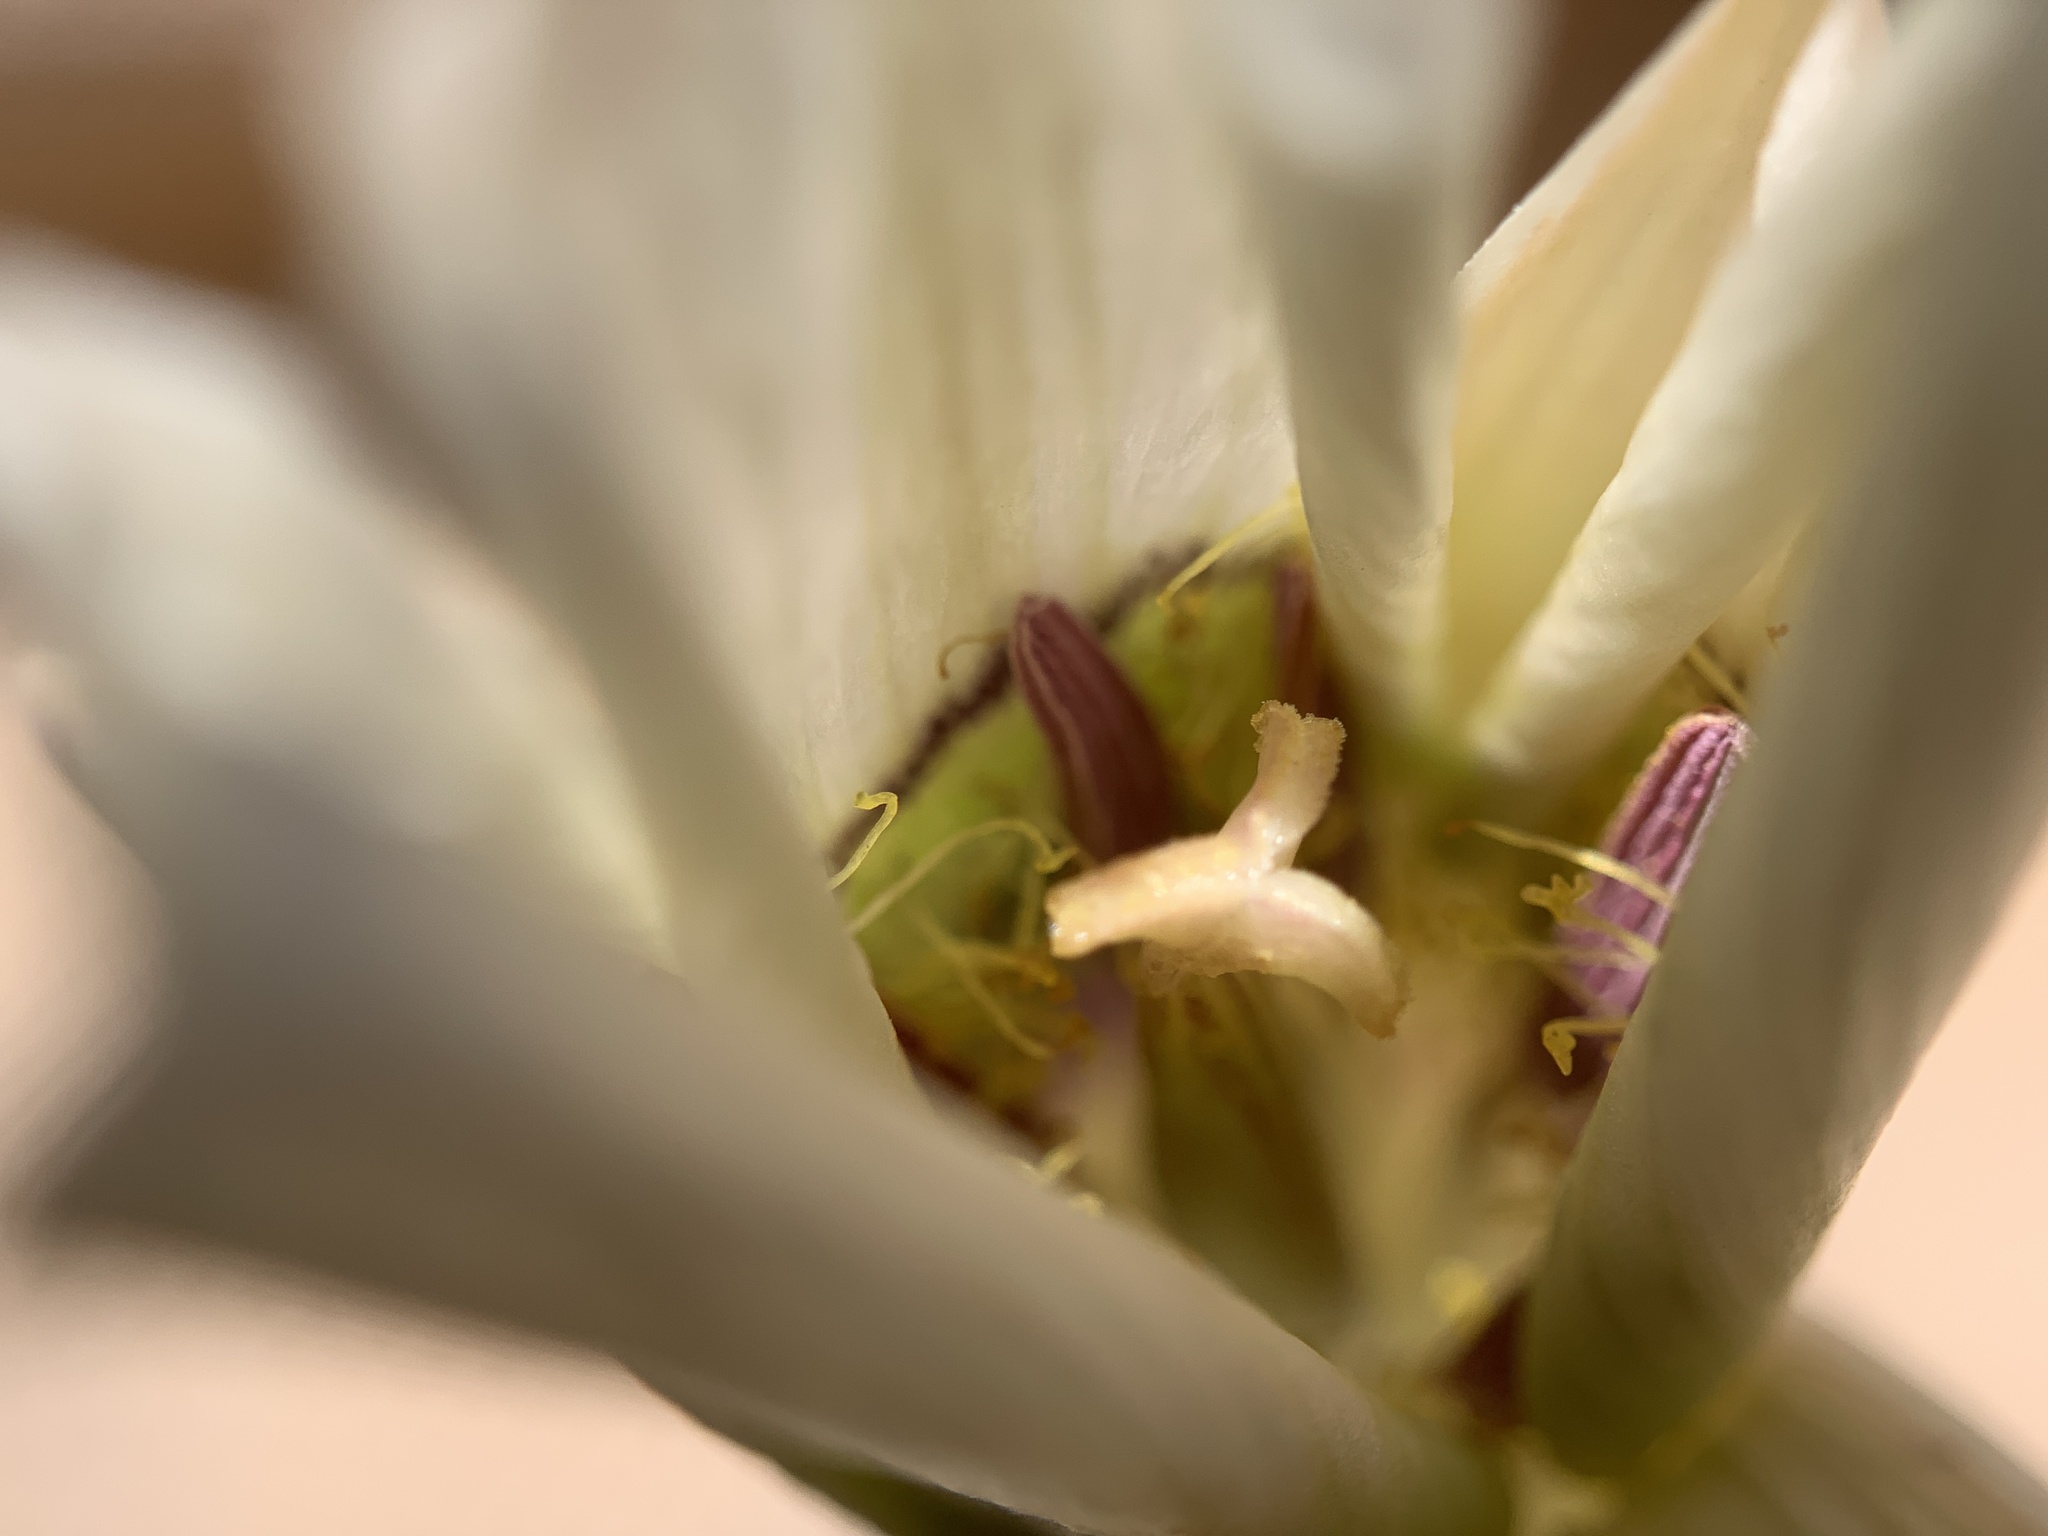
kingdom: Plantae
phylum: Tracheophyta
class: Liliopsida
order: Liliales
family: Liliaceae
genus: Calochortus
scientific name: Calochortus ambiguus
